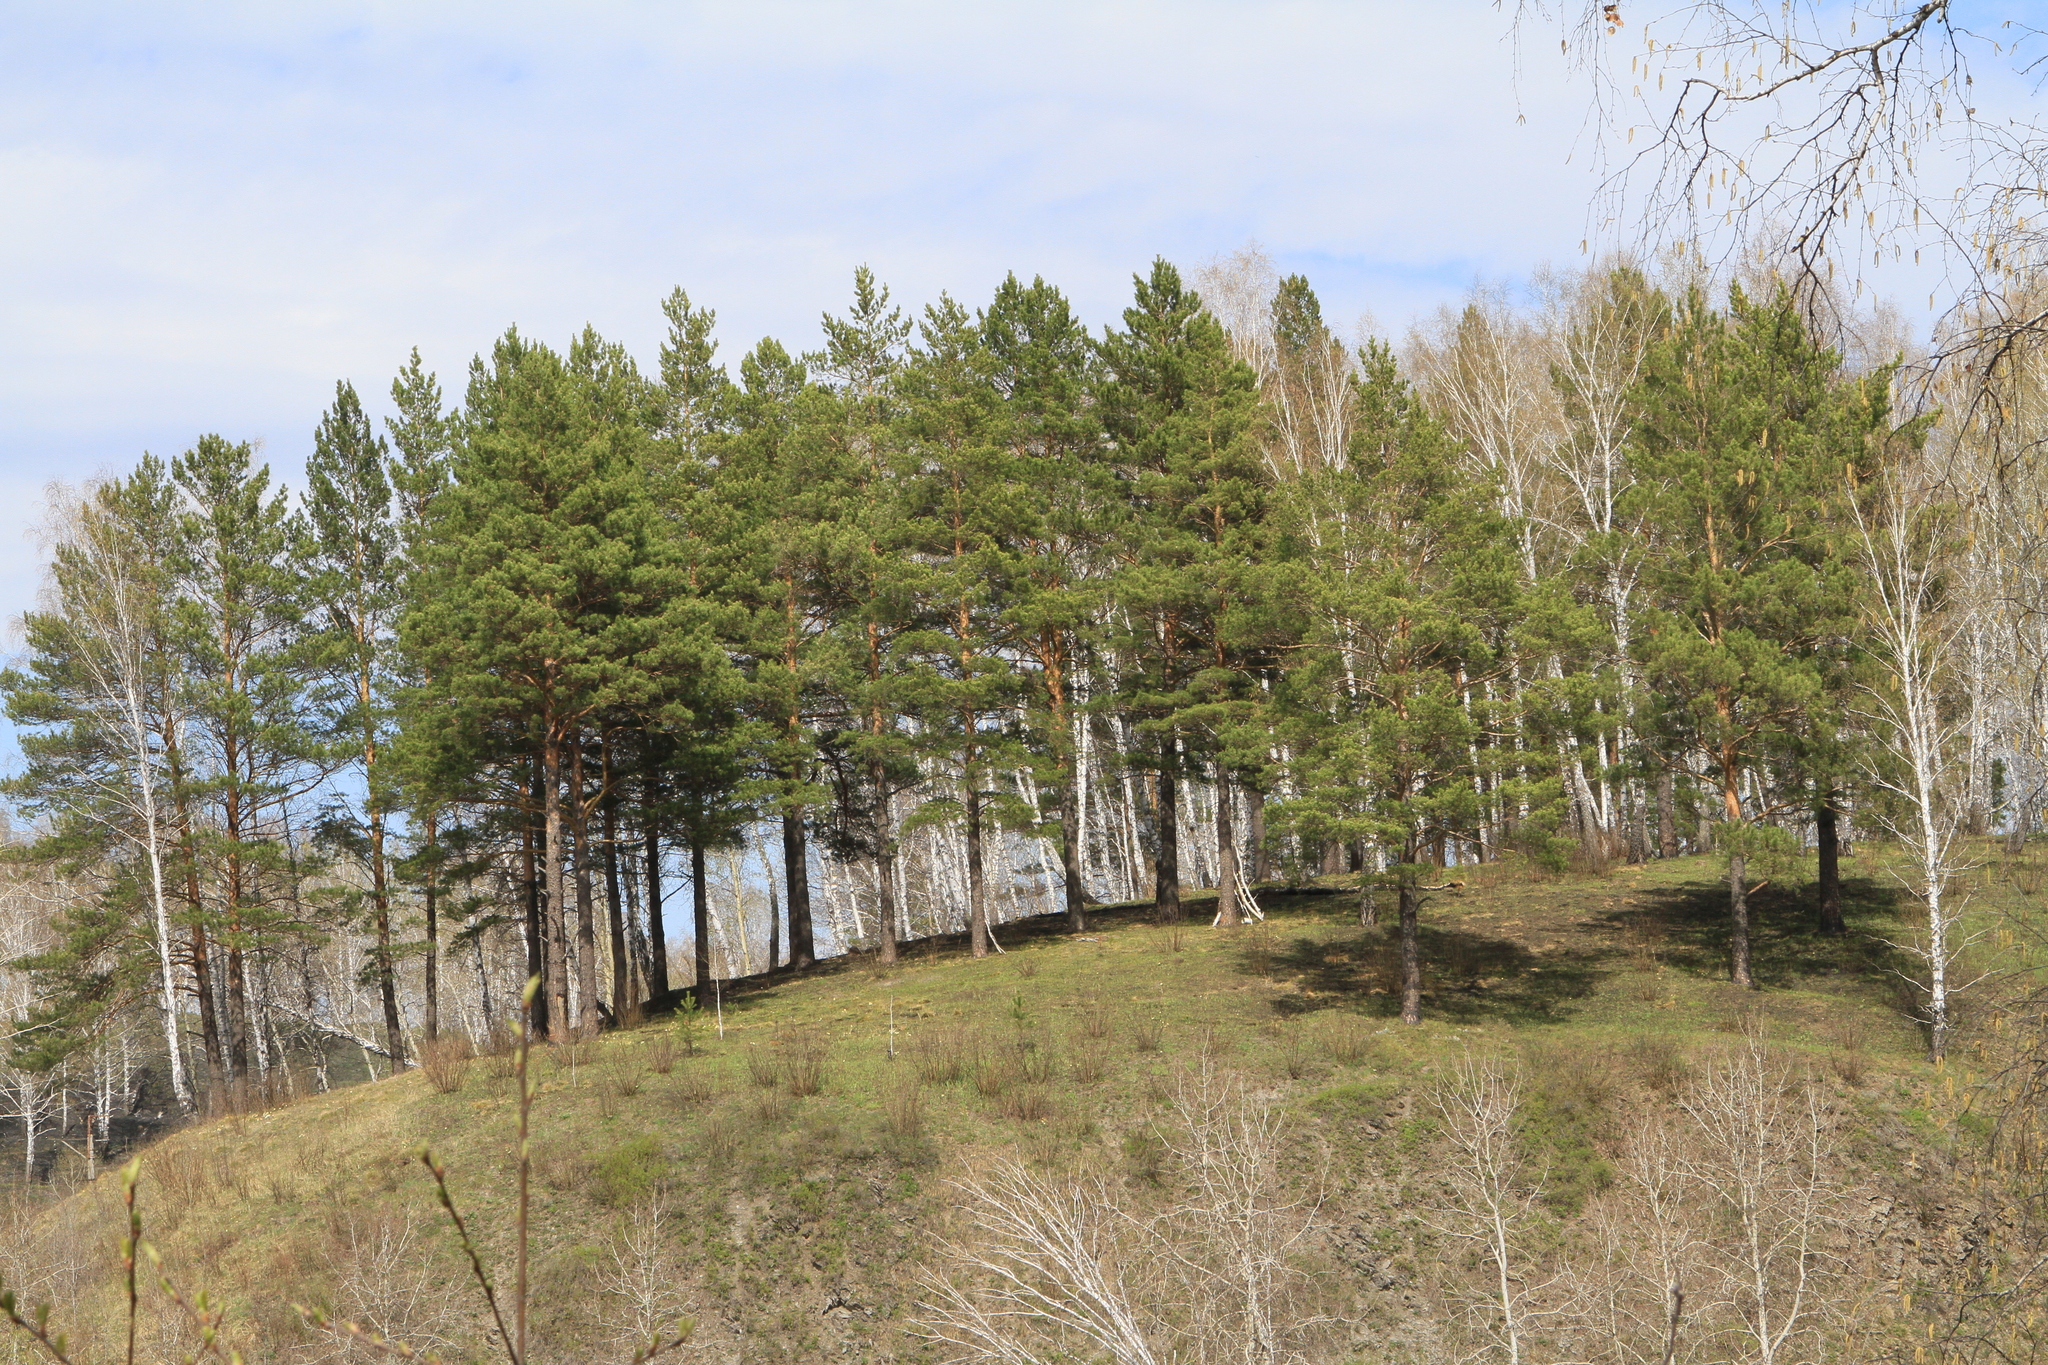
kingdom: Plantae
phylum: Tracheophyta
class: Pinopsida
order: Pinales
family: Pinaceae
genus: Pinus
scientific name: Pinus sylvestris
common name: Scots pine
